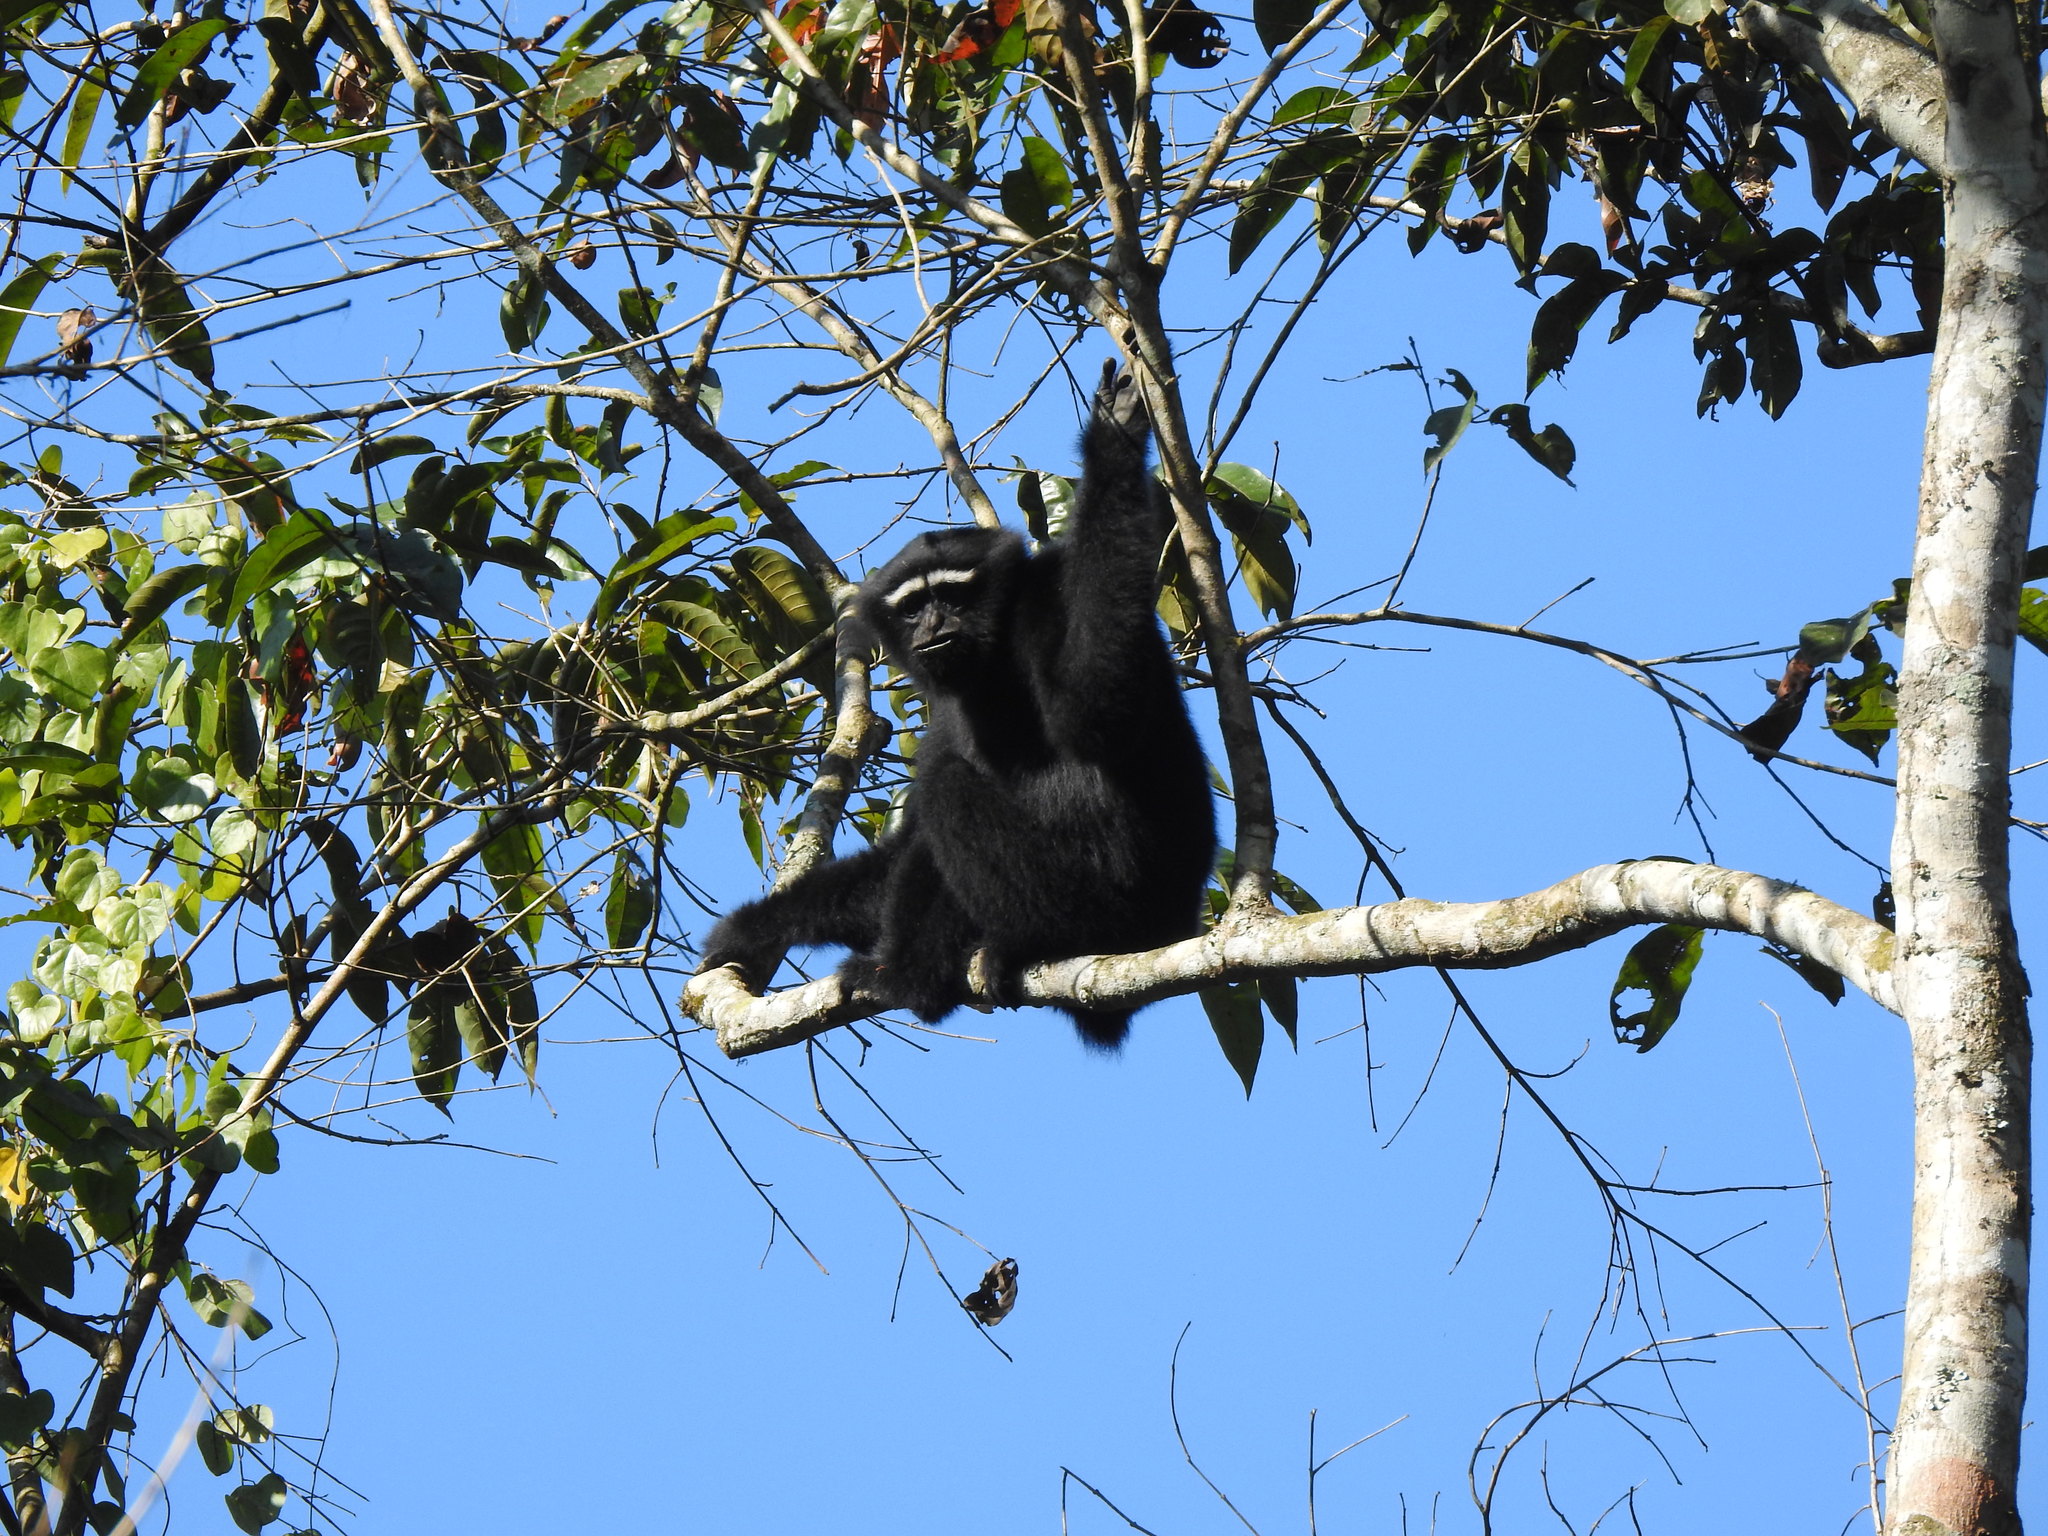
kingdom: Animalia
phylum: Chordata
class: Mammalia
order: Primates
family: Hylobatidae
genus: Hoolock
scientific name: Hoolock hoolock
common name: Western hoolock gibbon
